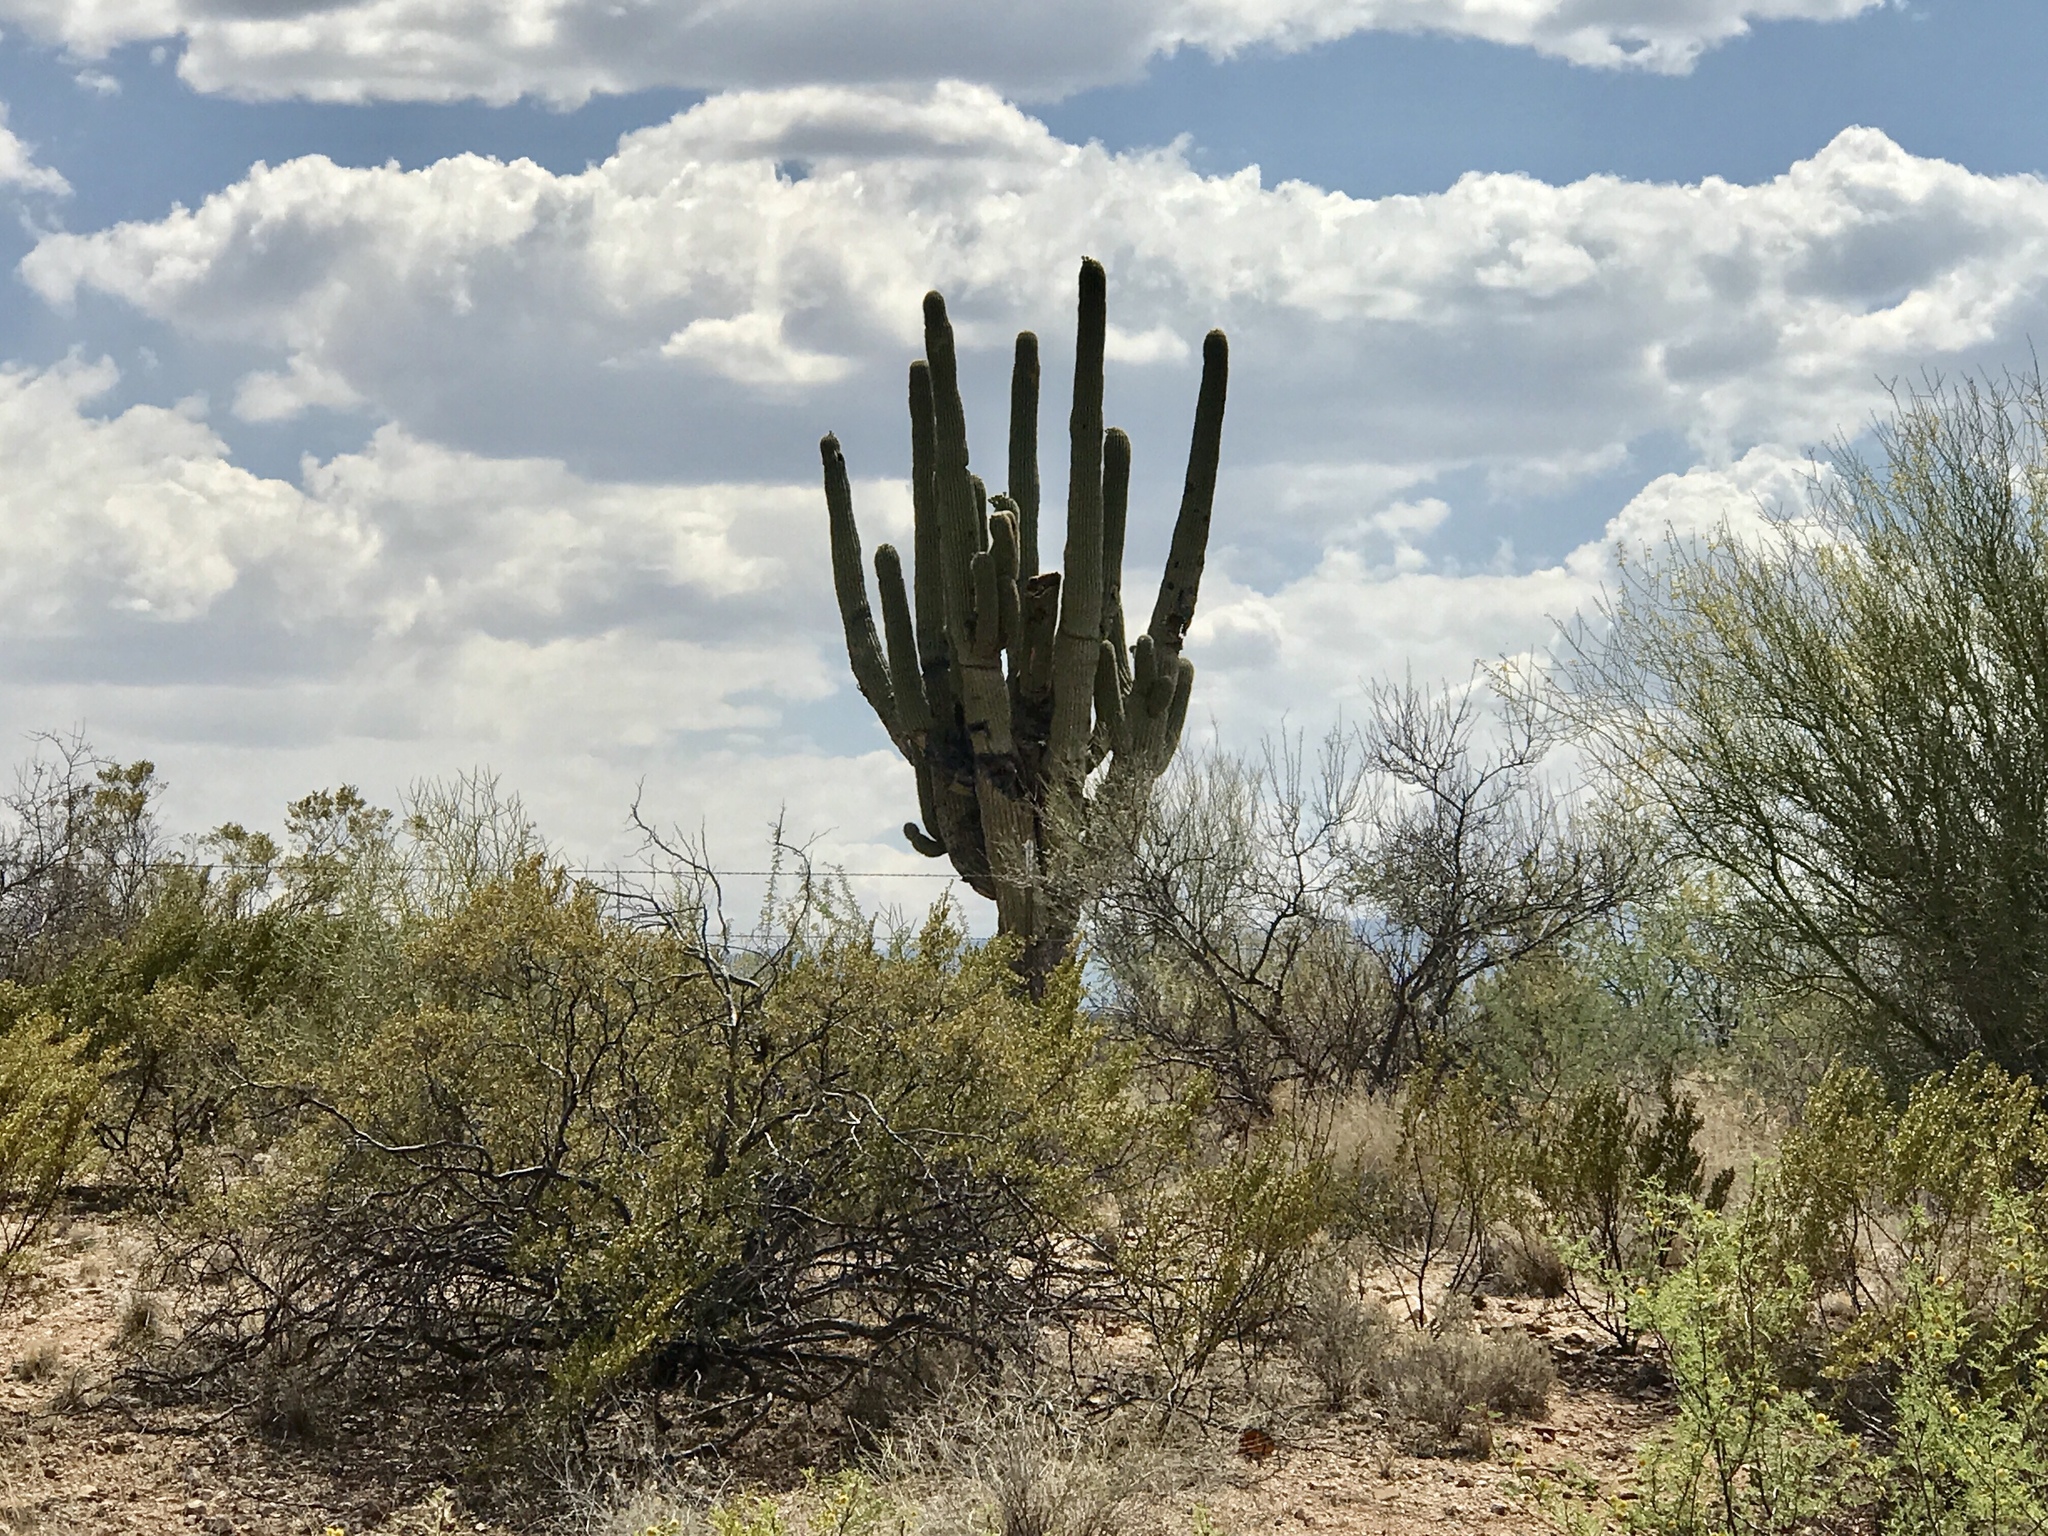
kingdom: Plantae
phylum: Tracheophyta
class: Magnoliopsida
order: Caryophyllales
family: Cactaceae
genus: Carnegiea
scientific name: Carnegiea gigantea
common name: Saguaro
